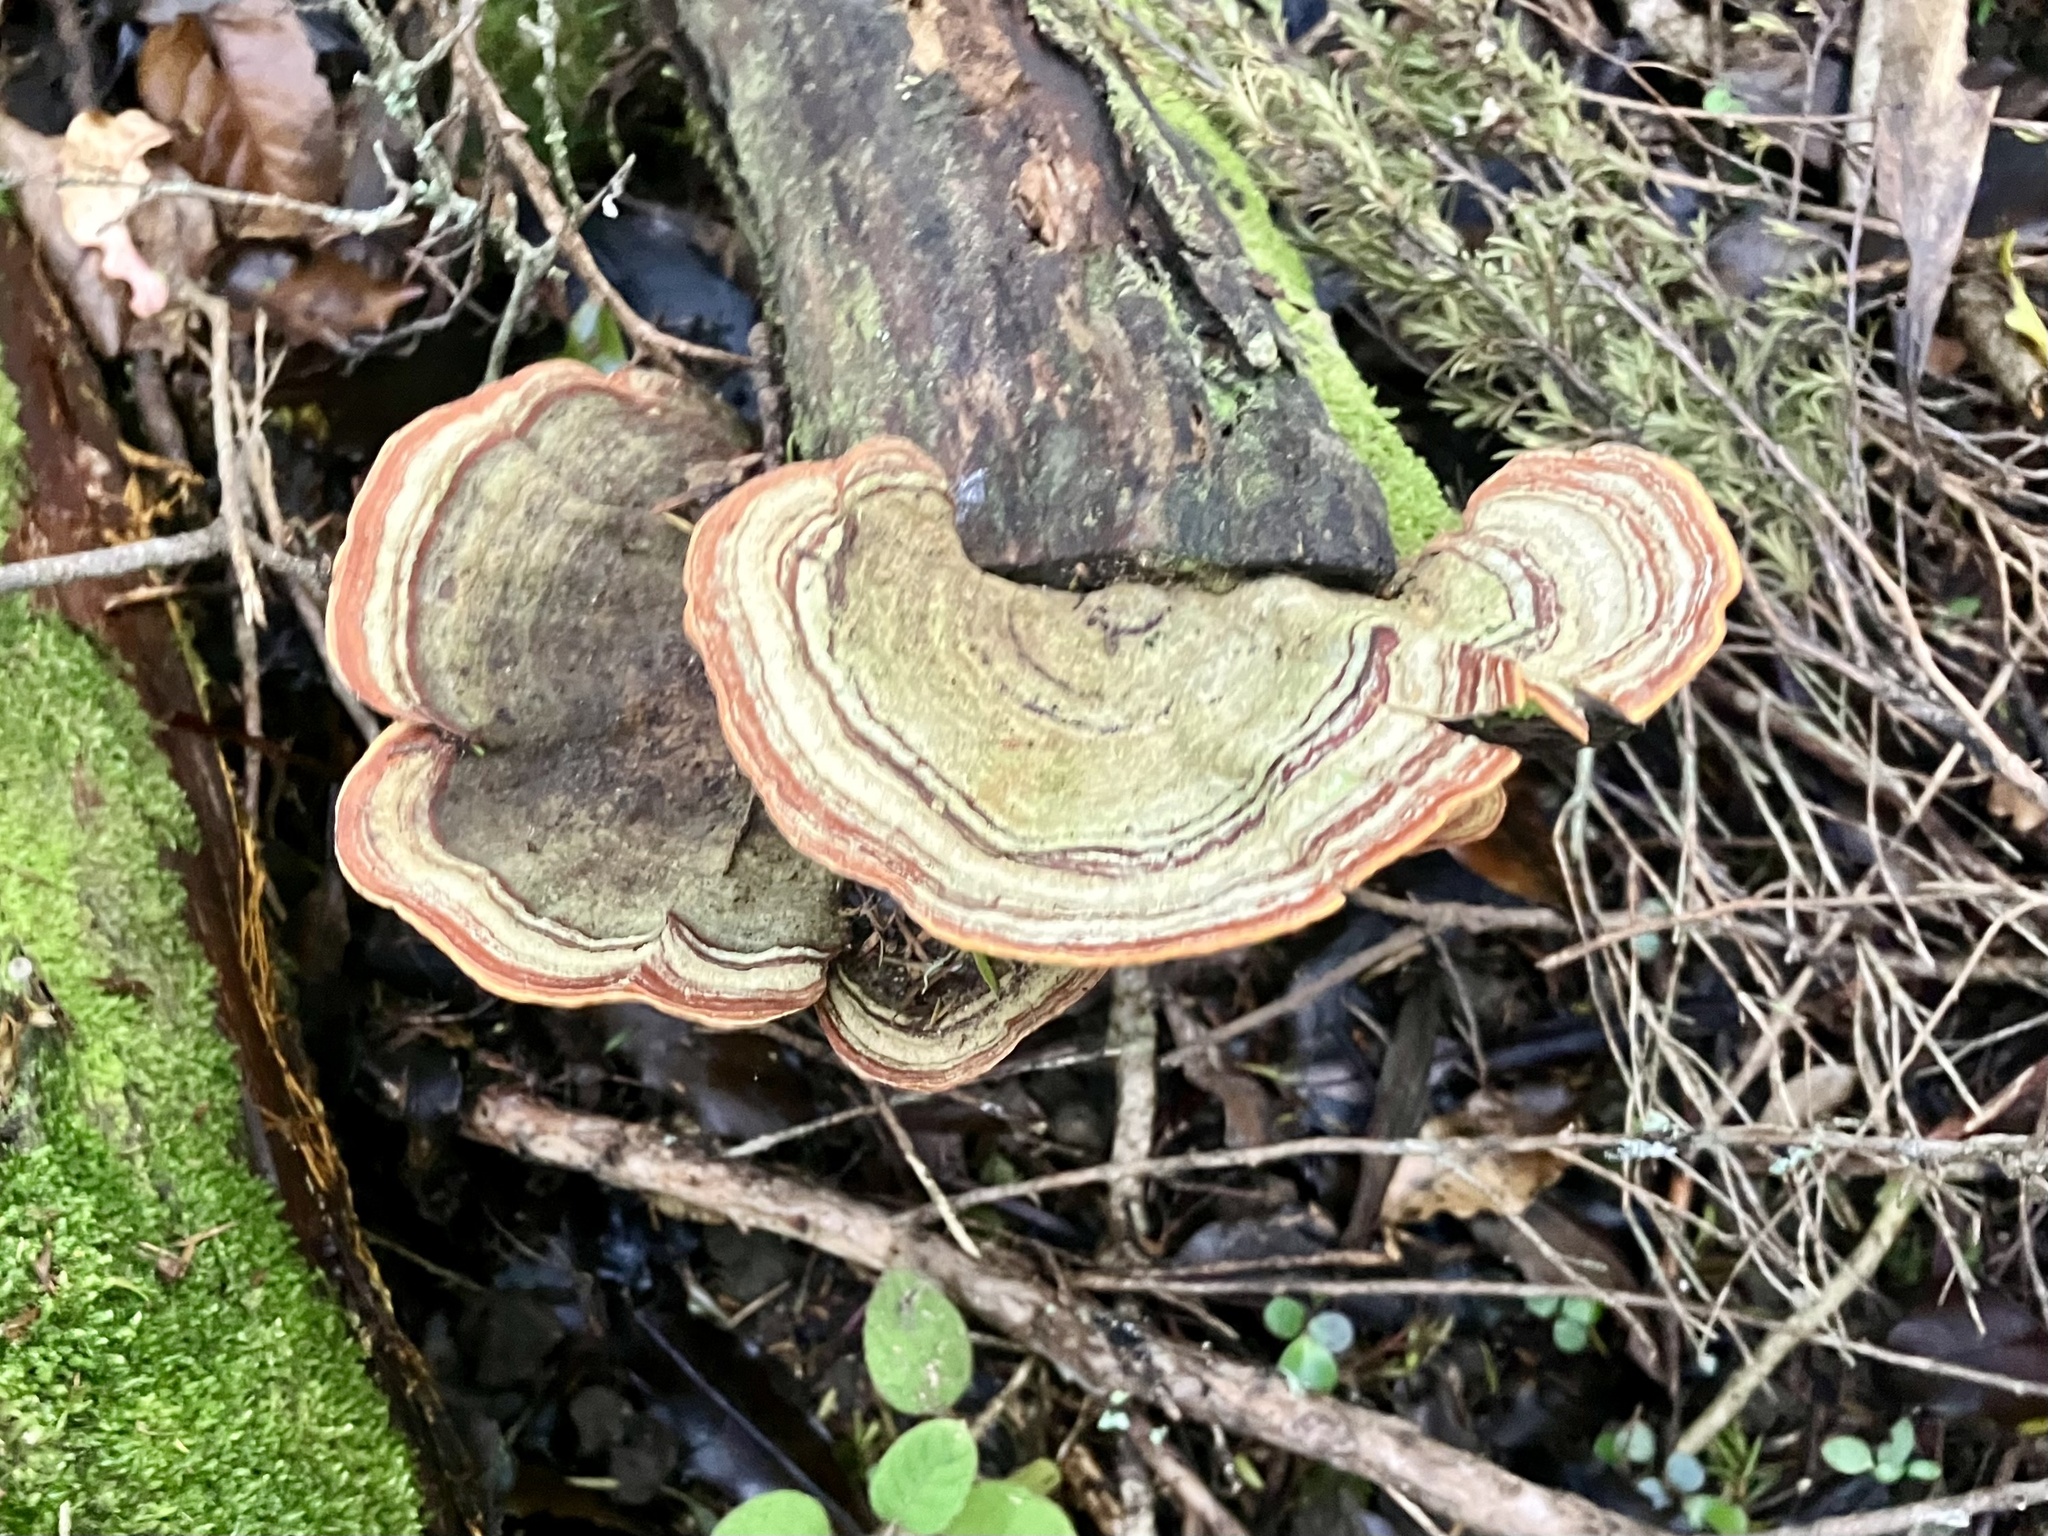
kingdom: Fungi
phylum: Basidiomycota
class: Agaricomycetes
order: Russulales
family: Stereaceae
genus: Stereum
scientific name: Stereum ostrea
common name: False turkeytail
